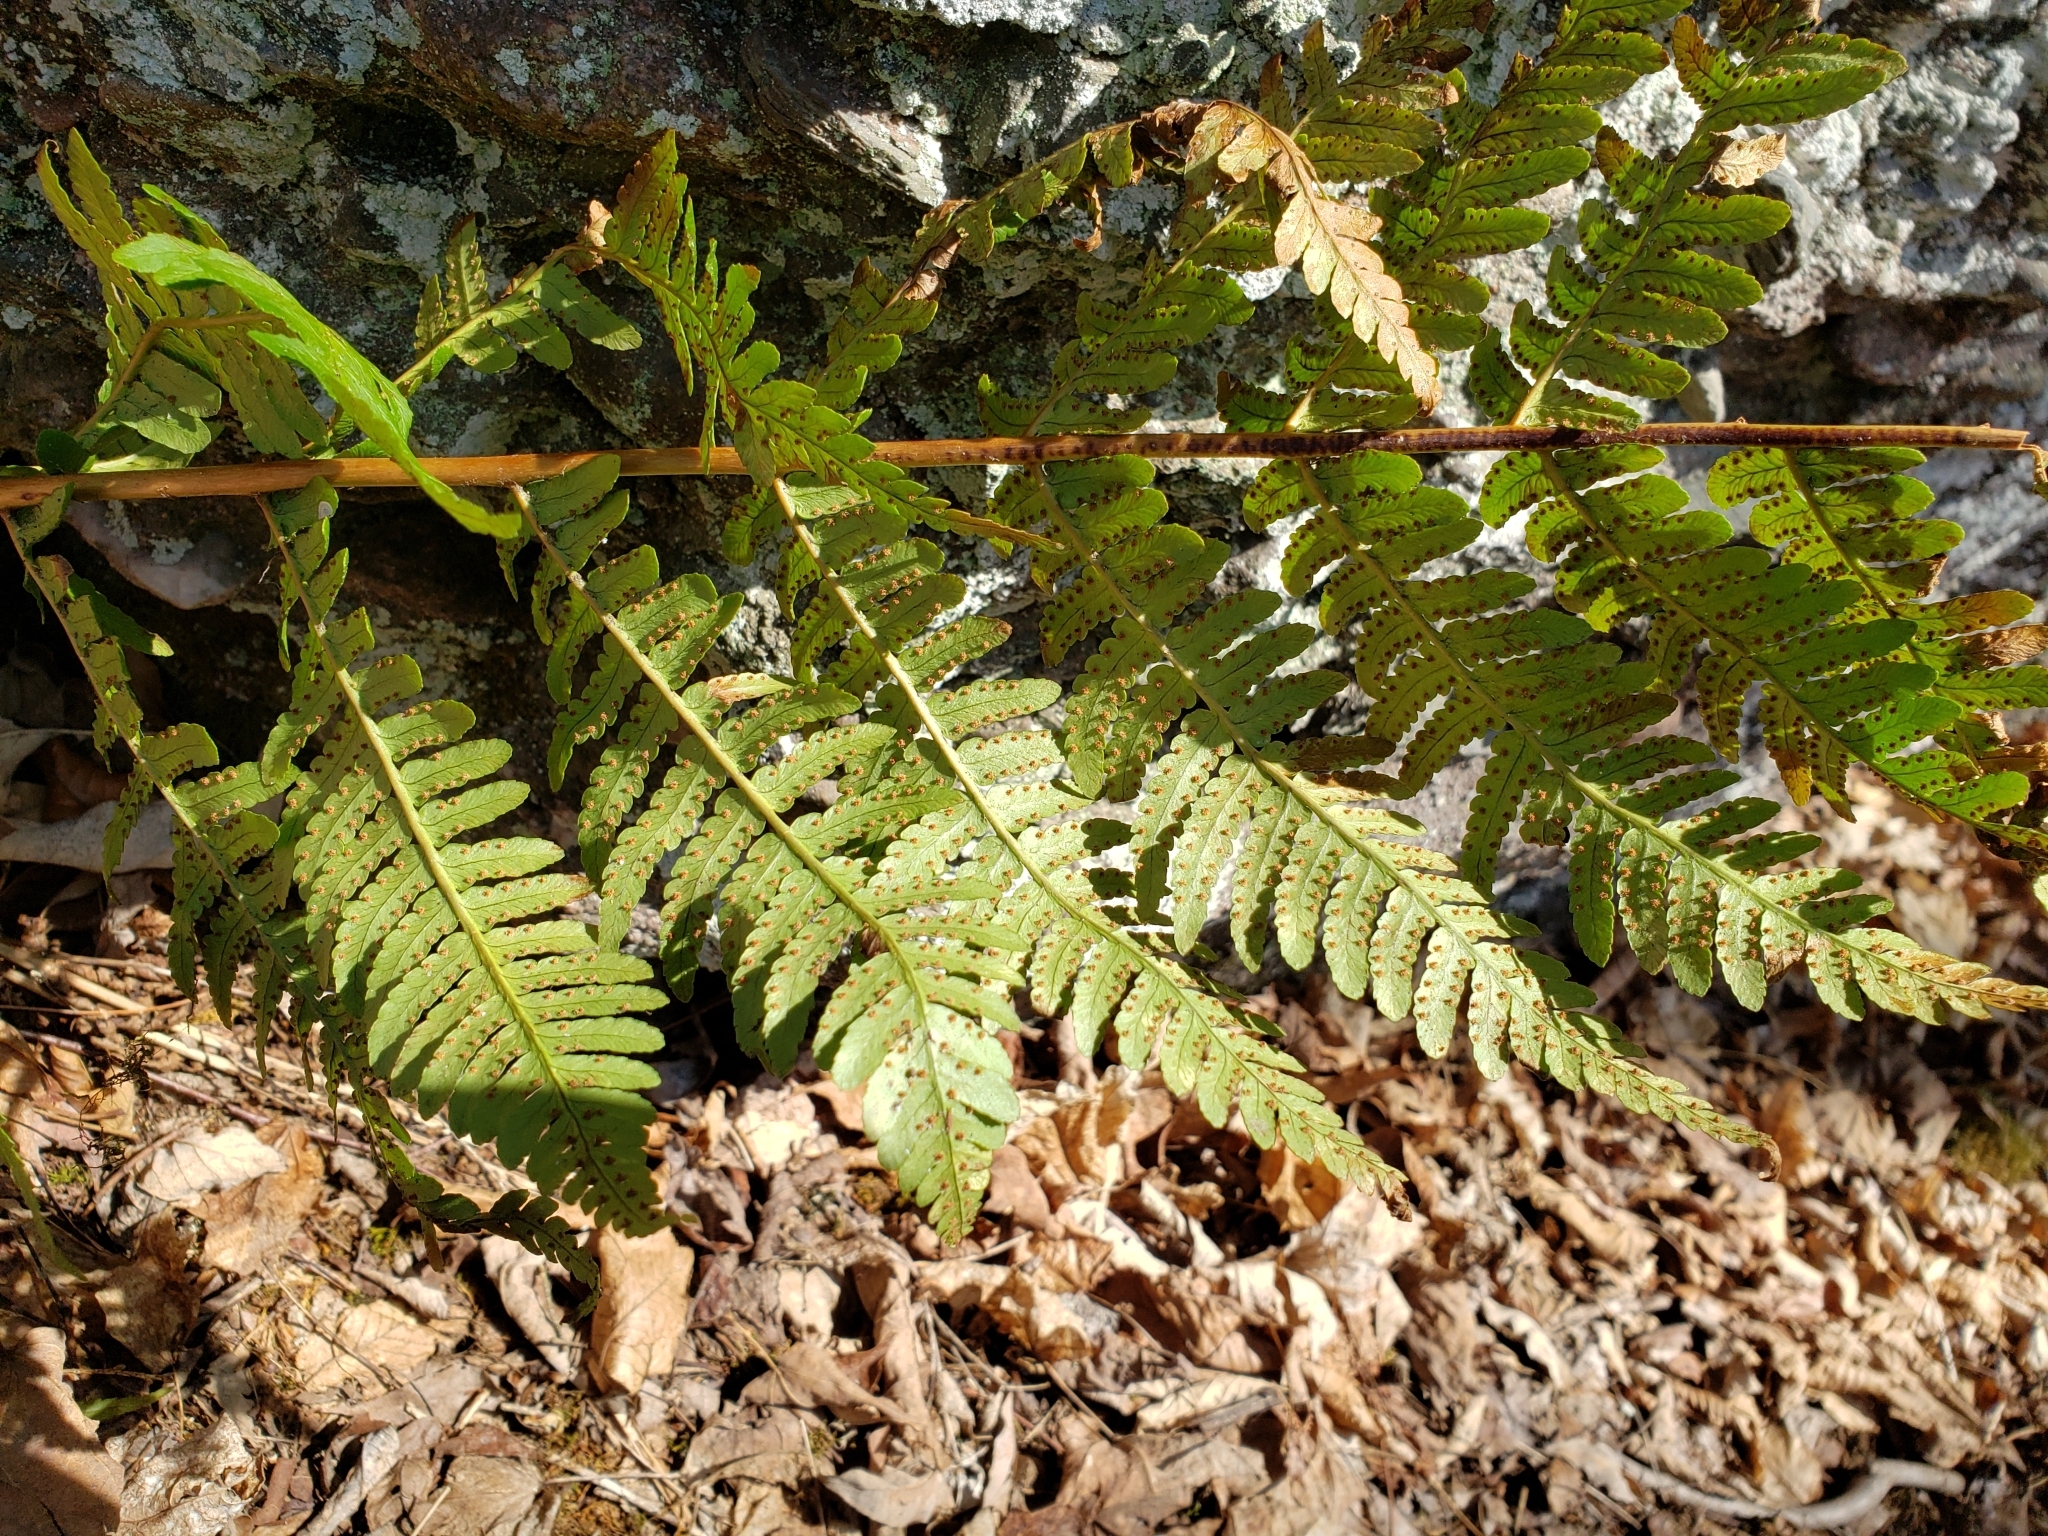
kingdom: Plantae
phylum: Tracheophyta
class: Polypodiopsida
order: Polypodiales
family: Dryopteridaceae
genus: Dryopteris
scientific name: Dryopteris marginalis
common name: Marginal wood fern
